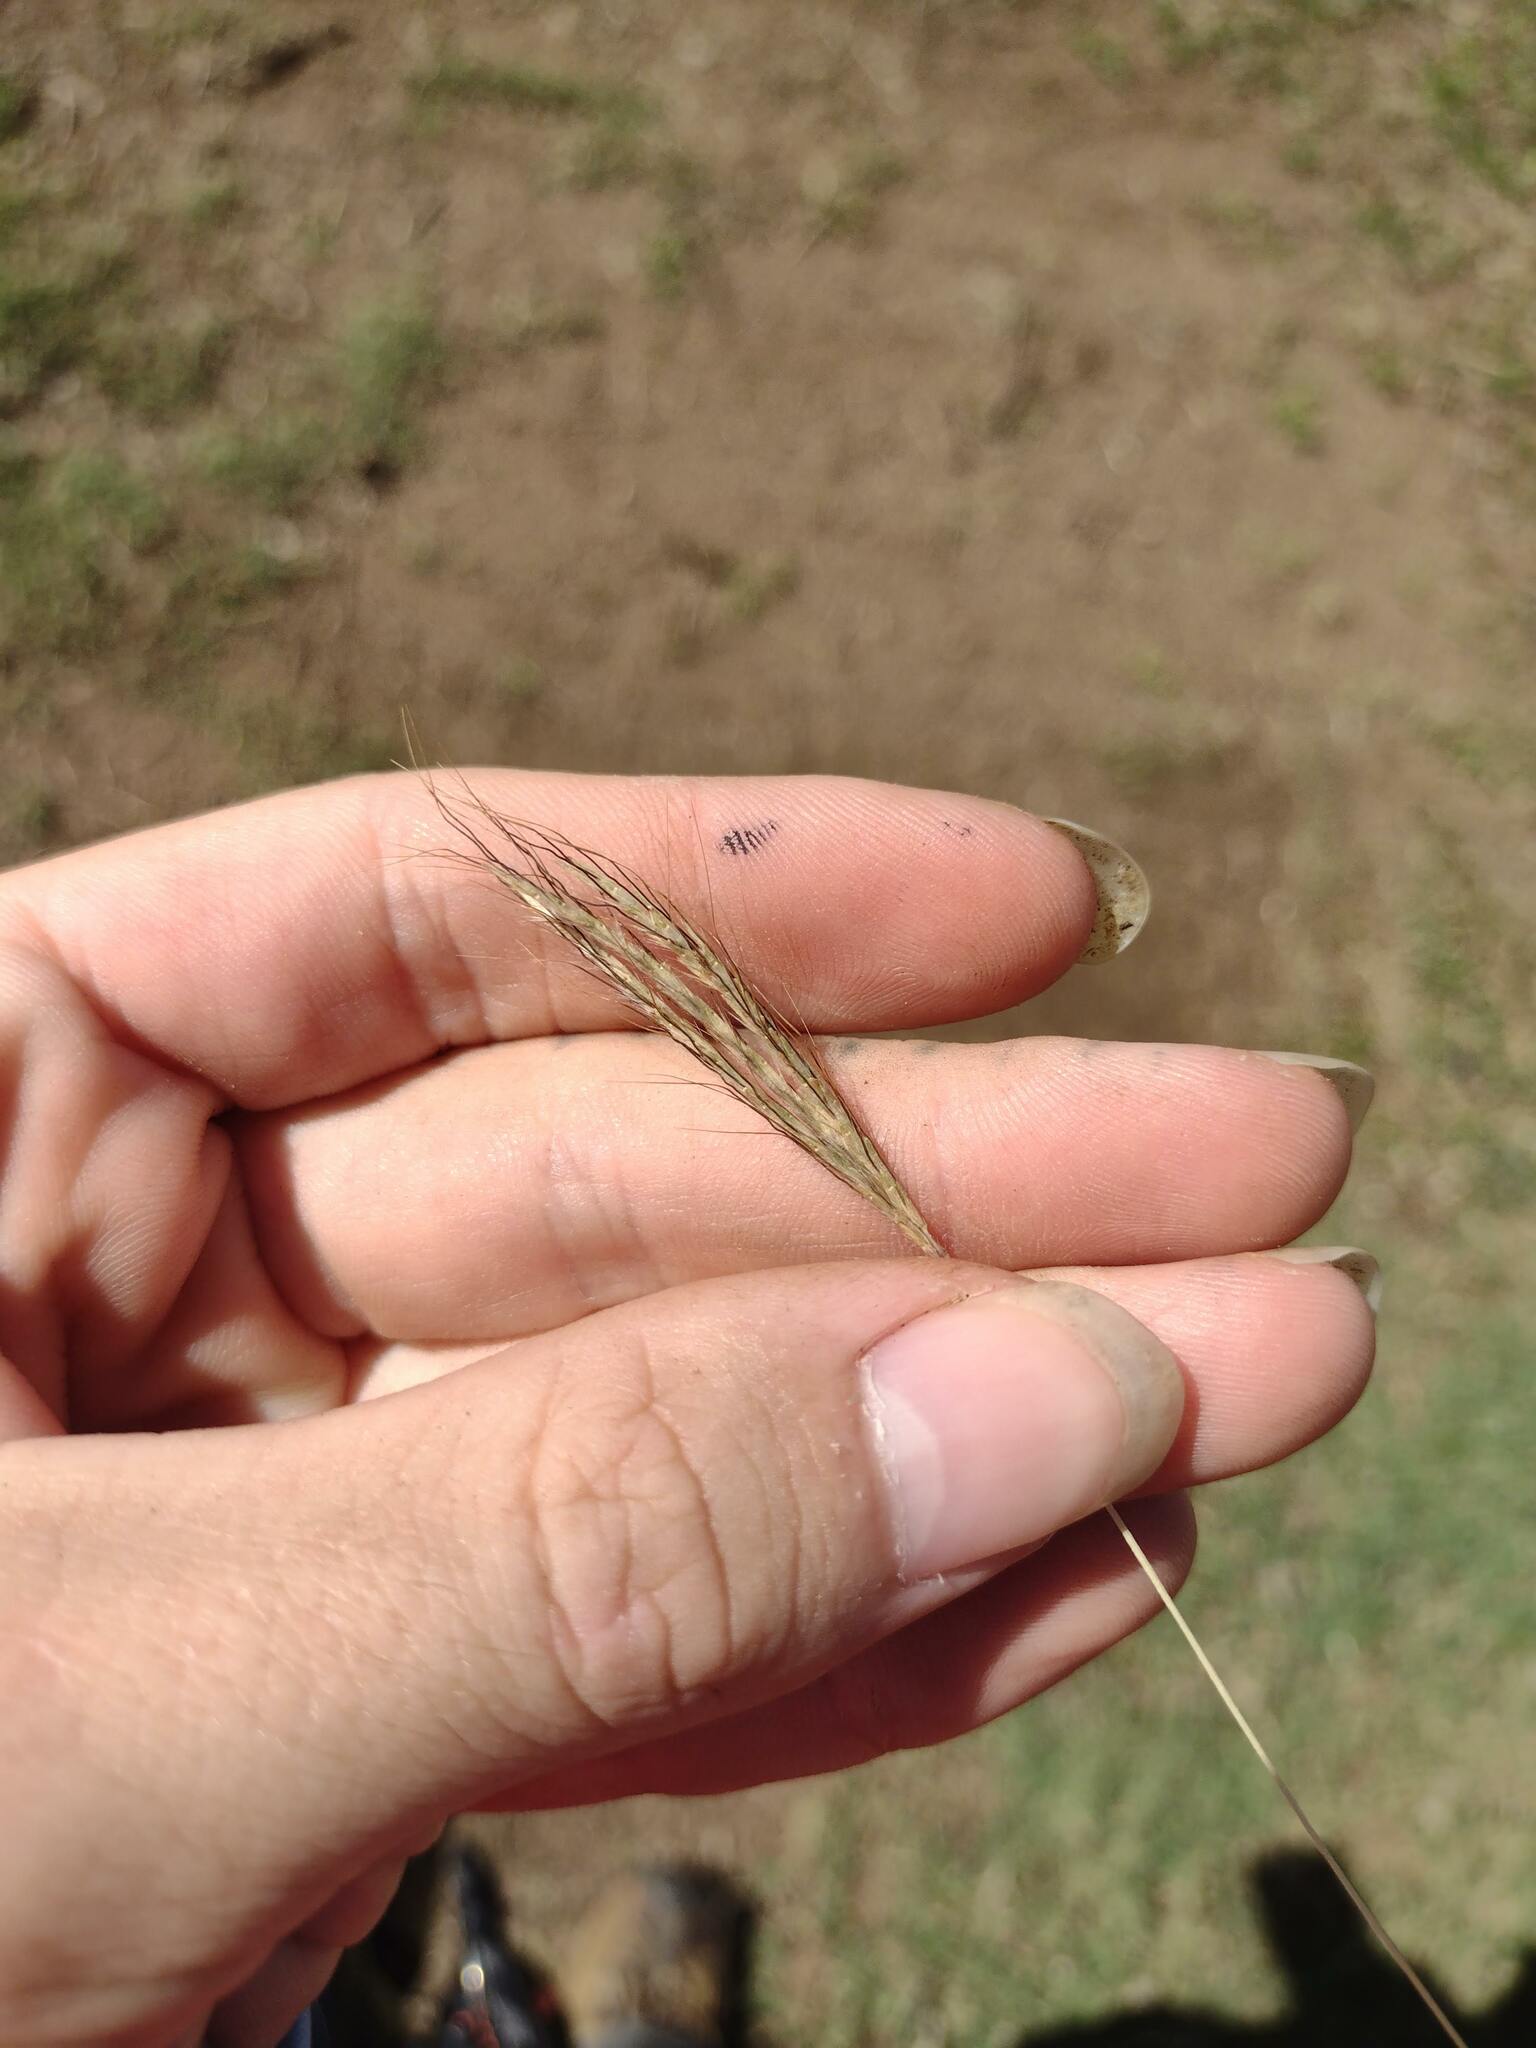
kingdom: Plantae
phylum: Tracheophyta
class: Liliopsida
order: Poales
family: Poaceae
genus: Bothriochloa
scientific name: Bothriochloa pertusa
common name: Pitted beardgrass
